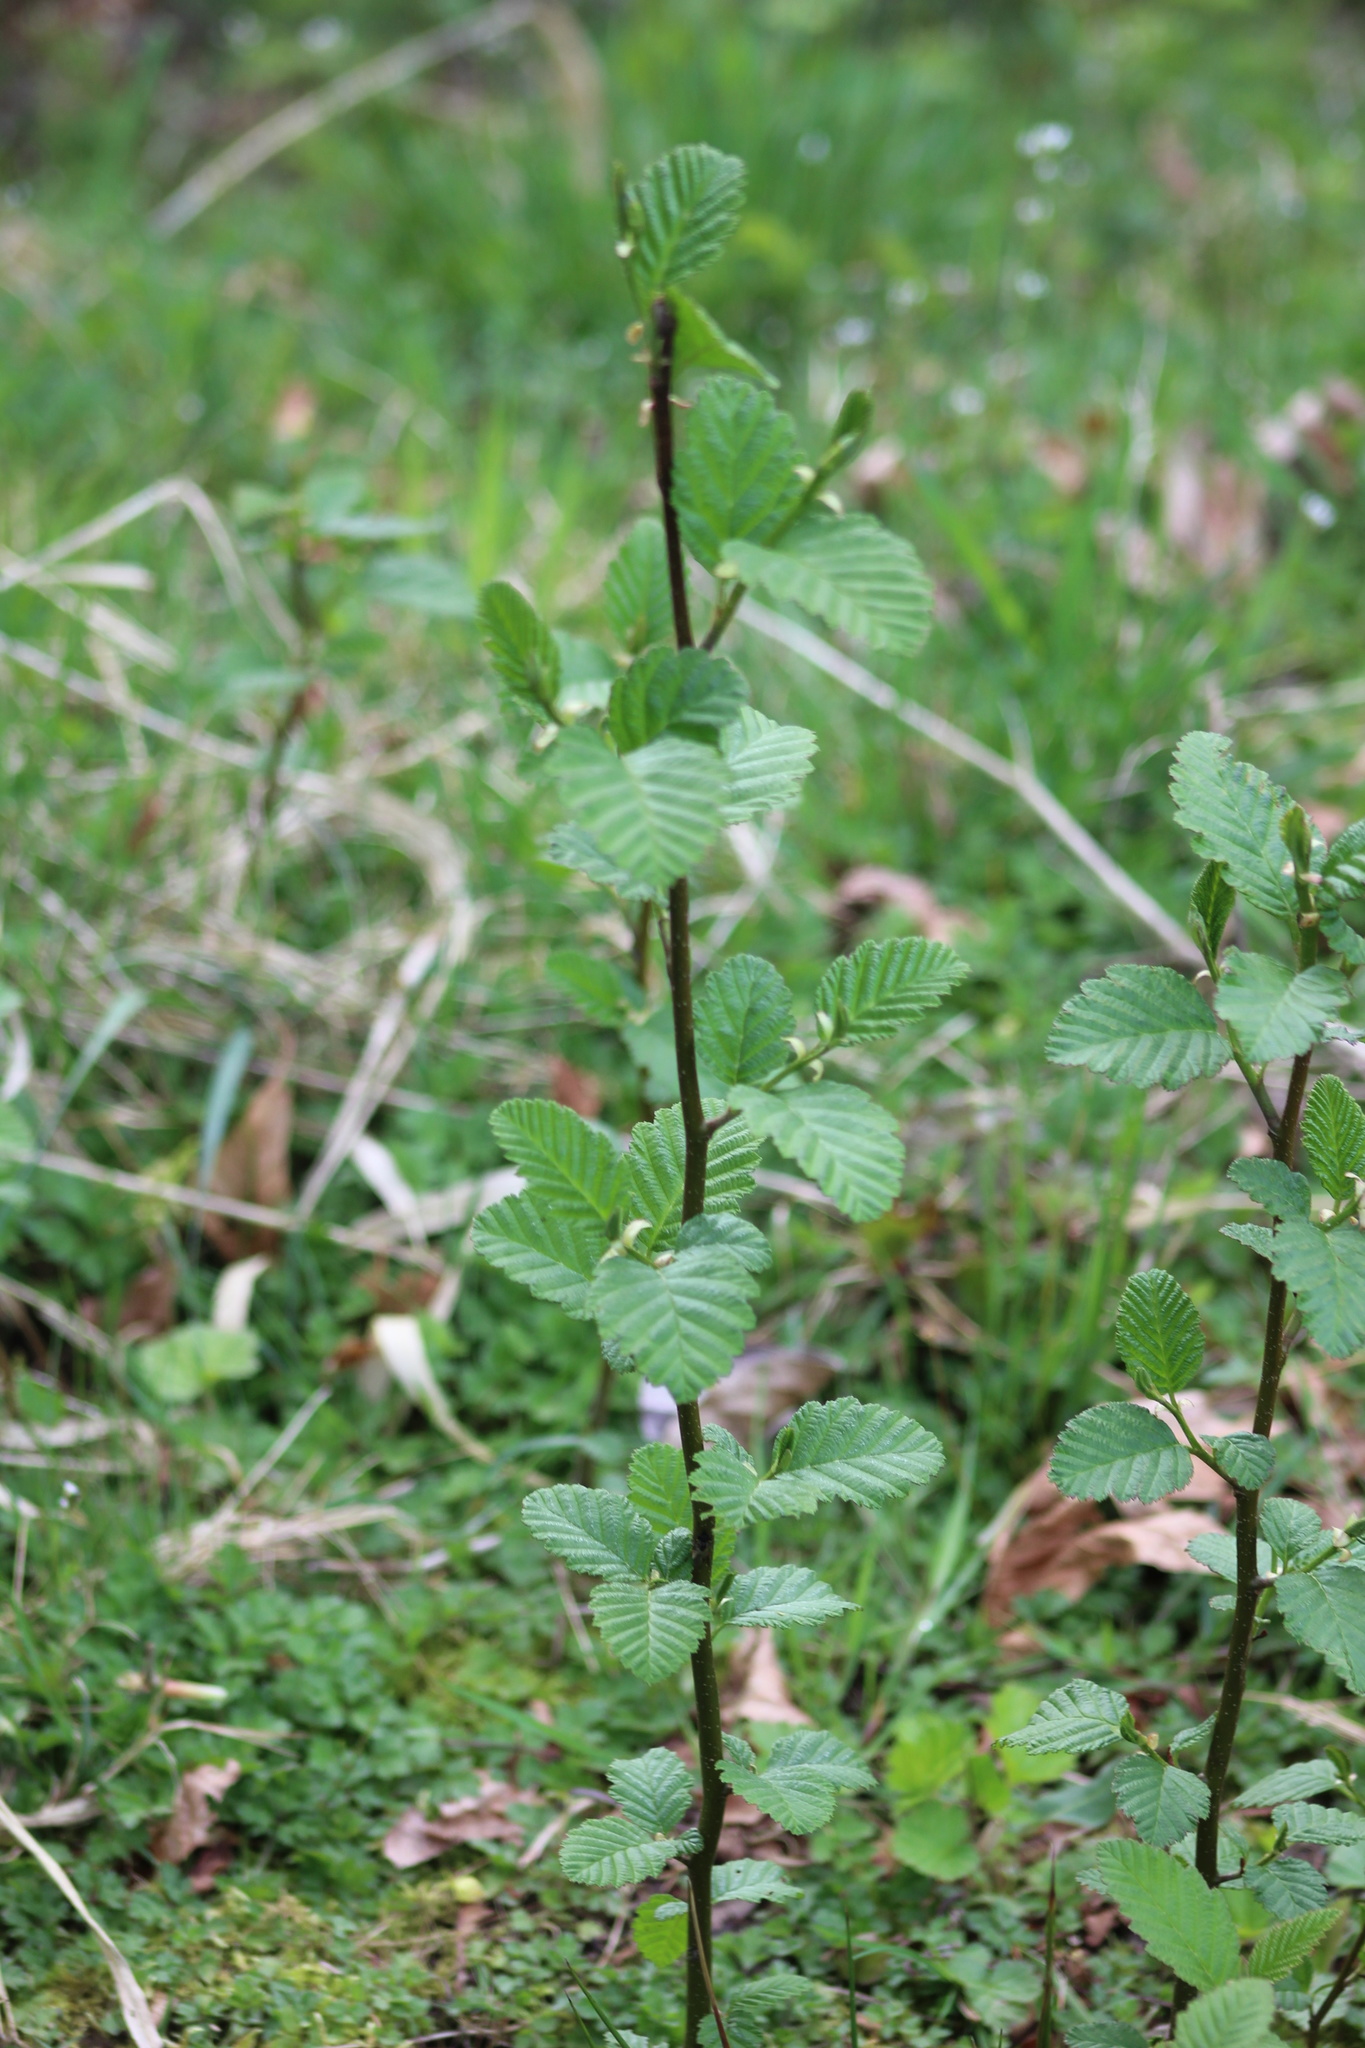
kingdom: Plantae
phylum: Tracheophyta
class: Magnoliopsida
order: Fagales
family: Betulaceae
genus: Alnus
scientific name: Alnus rubra
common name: Red alder
